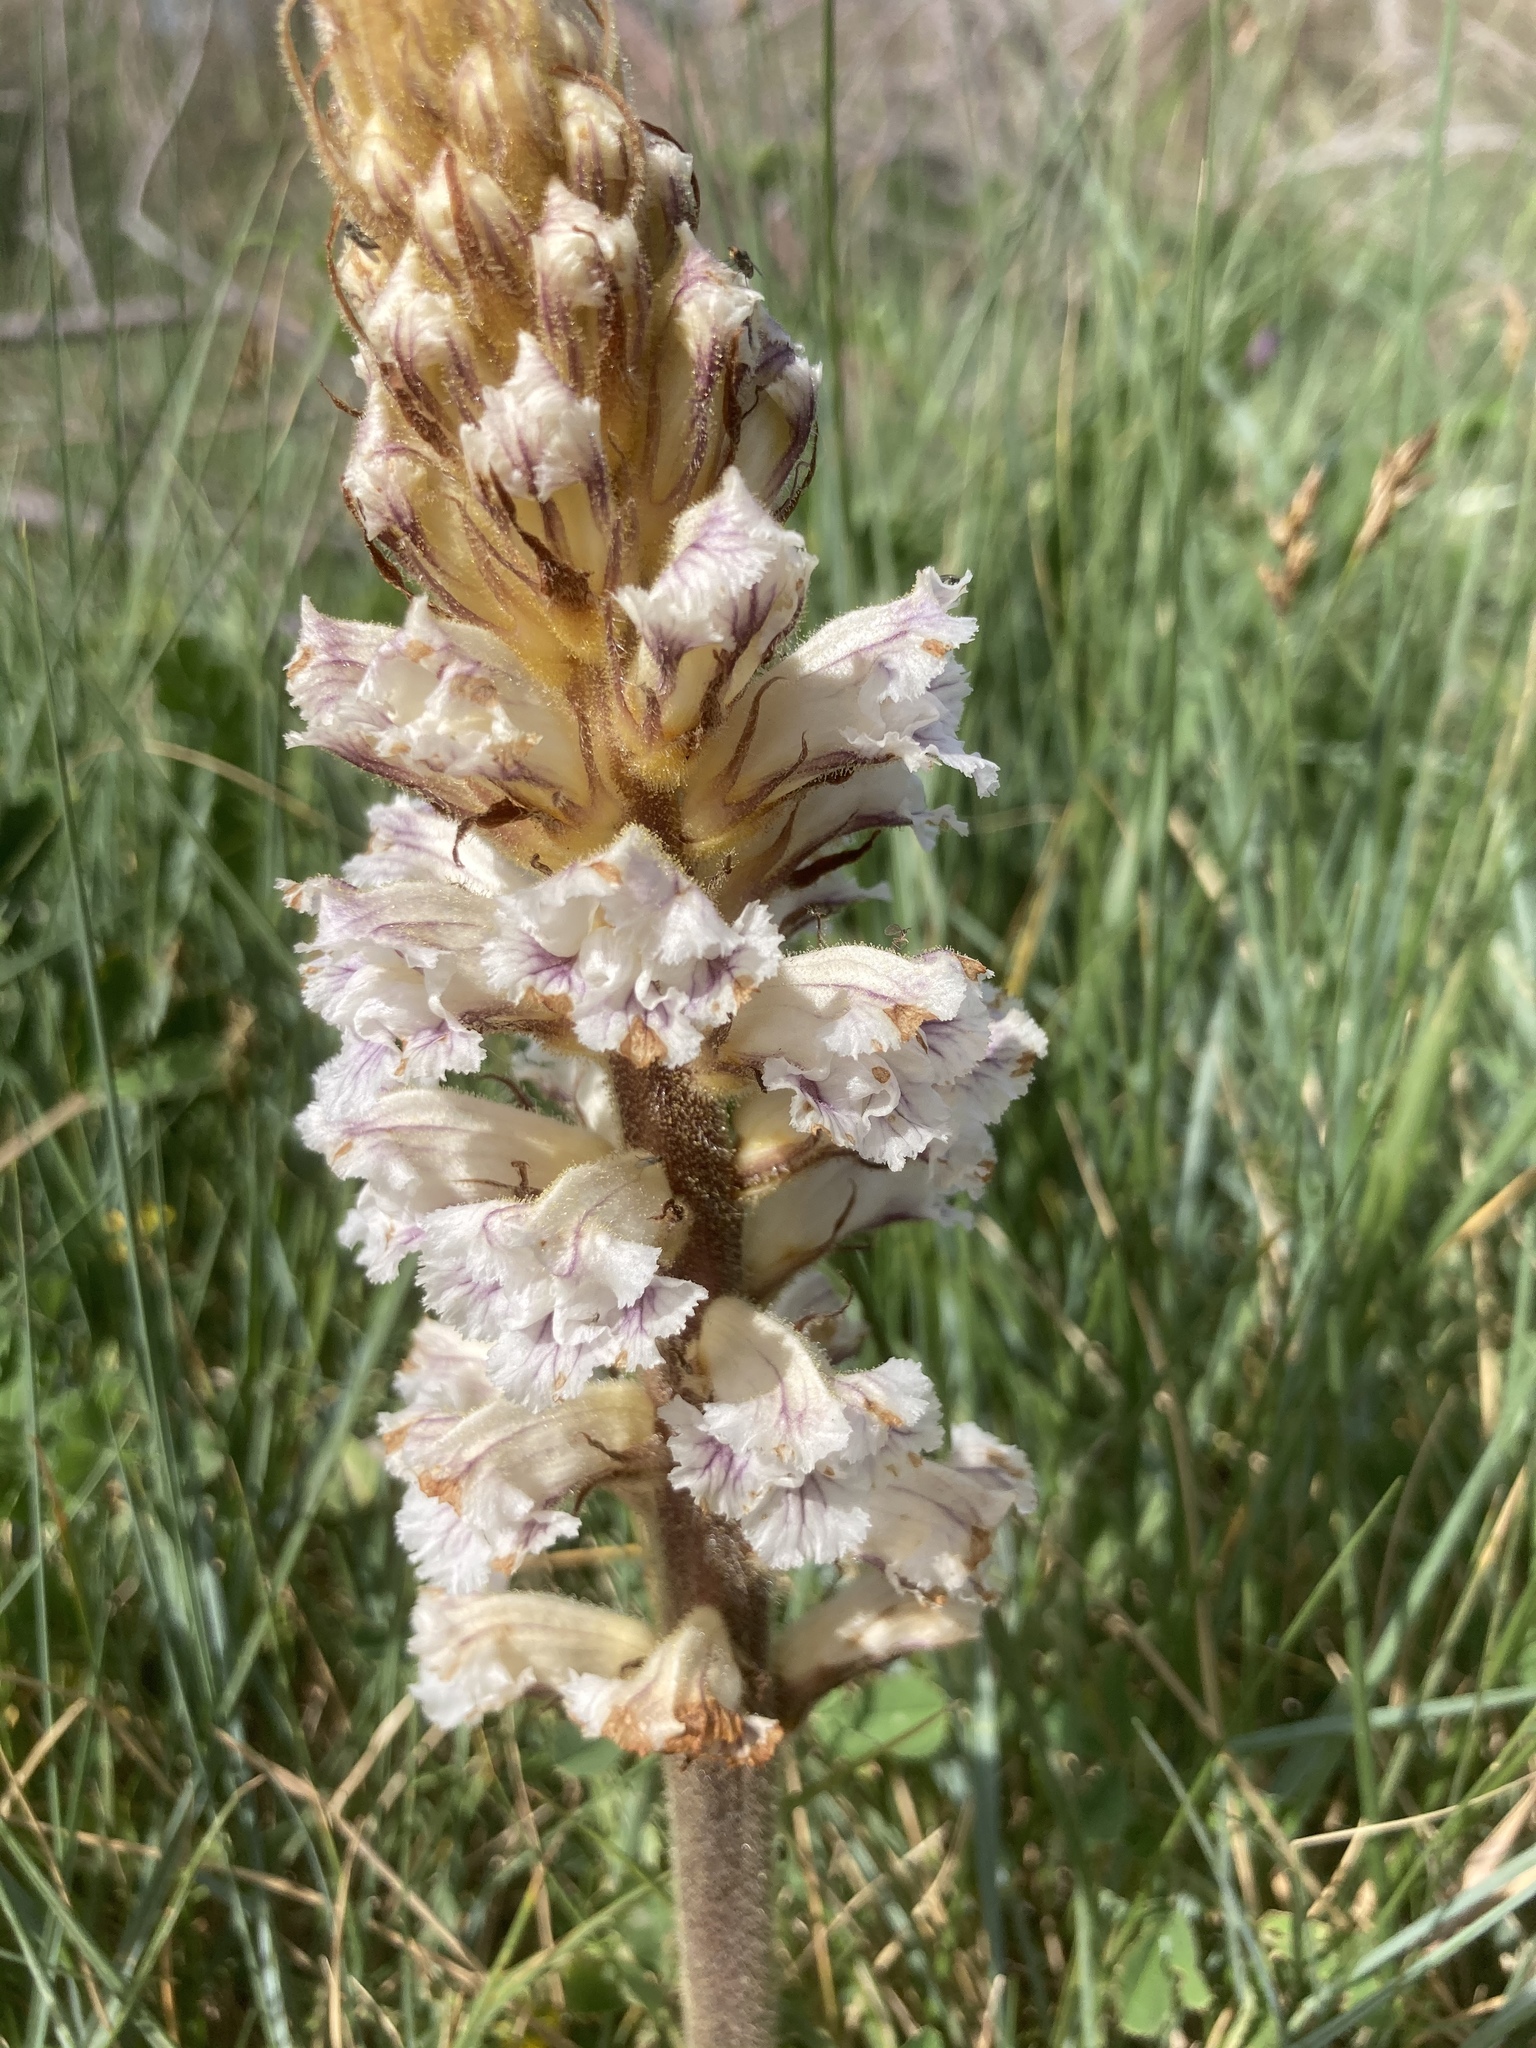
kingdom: Plantae
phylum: Tracheophyta
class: Magnoliopsida
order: Lamiales
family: Orobanchaceae
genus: Orobanche
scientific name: Orobanche crenata
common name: Bean broomrape
